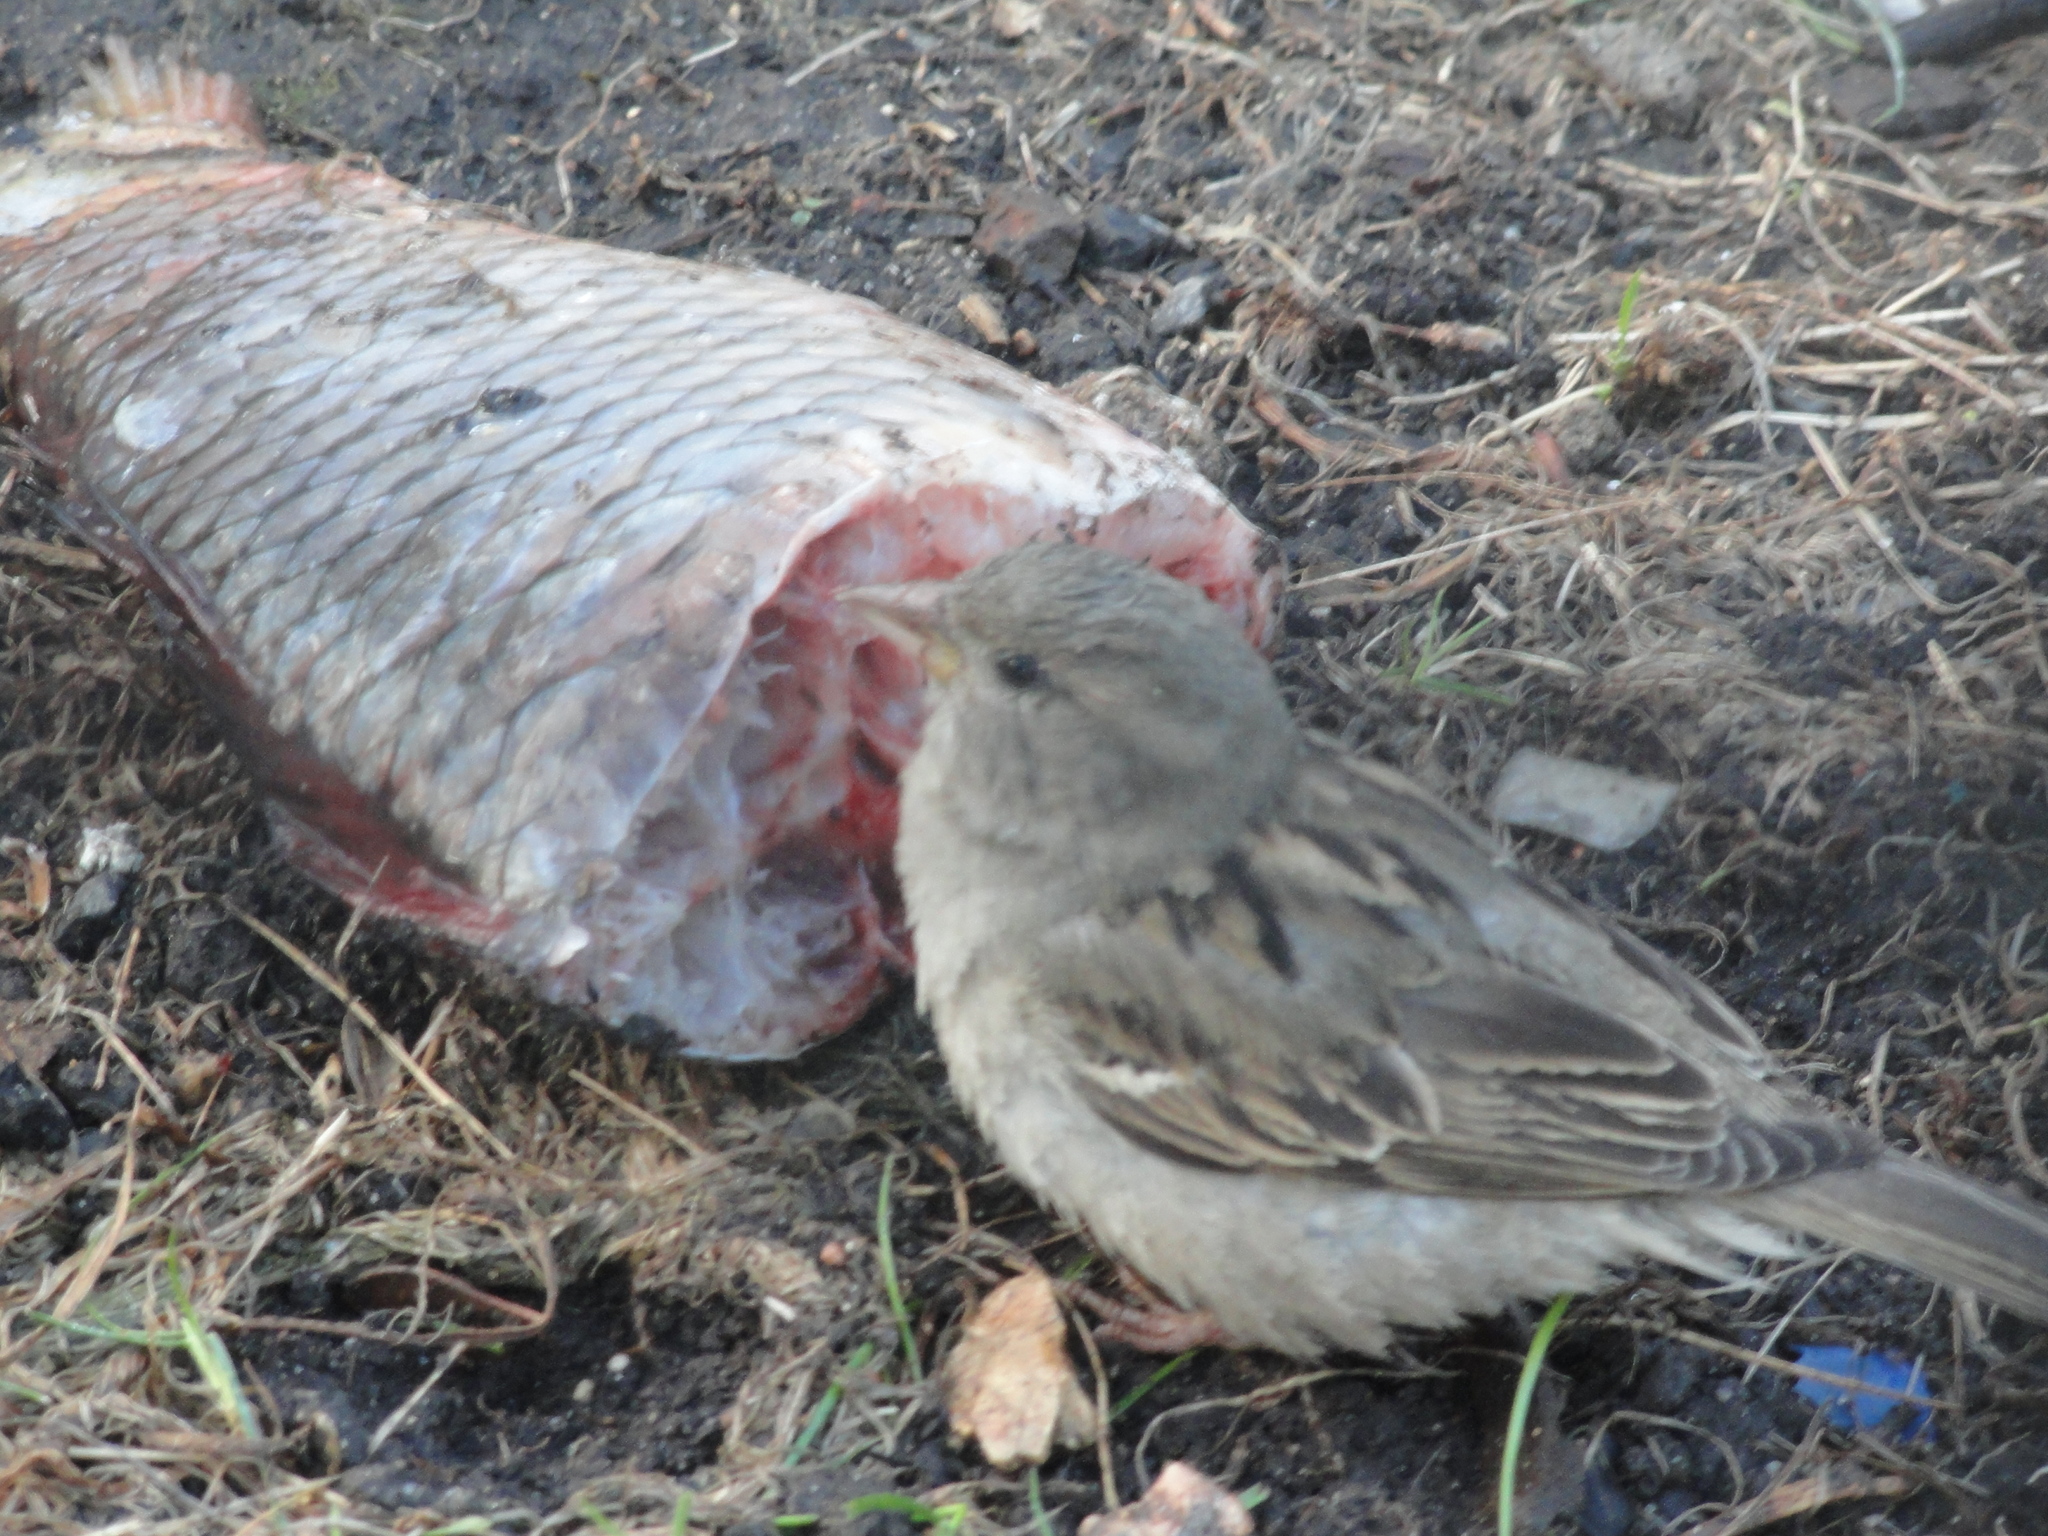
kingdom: Animalia
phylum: Chordata
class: Aves
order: Passeriformes
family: Passeridae
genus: Passer
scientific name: Passer domesticus
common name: House sparrow
